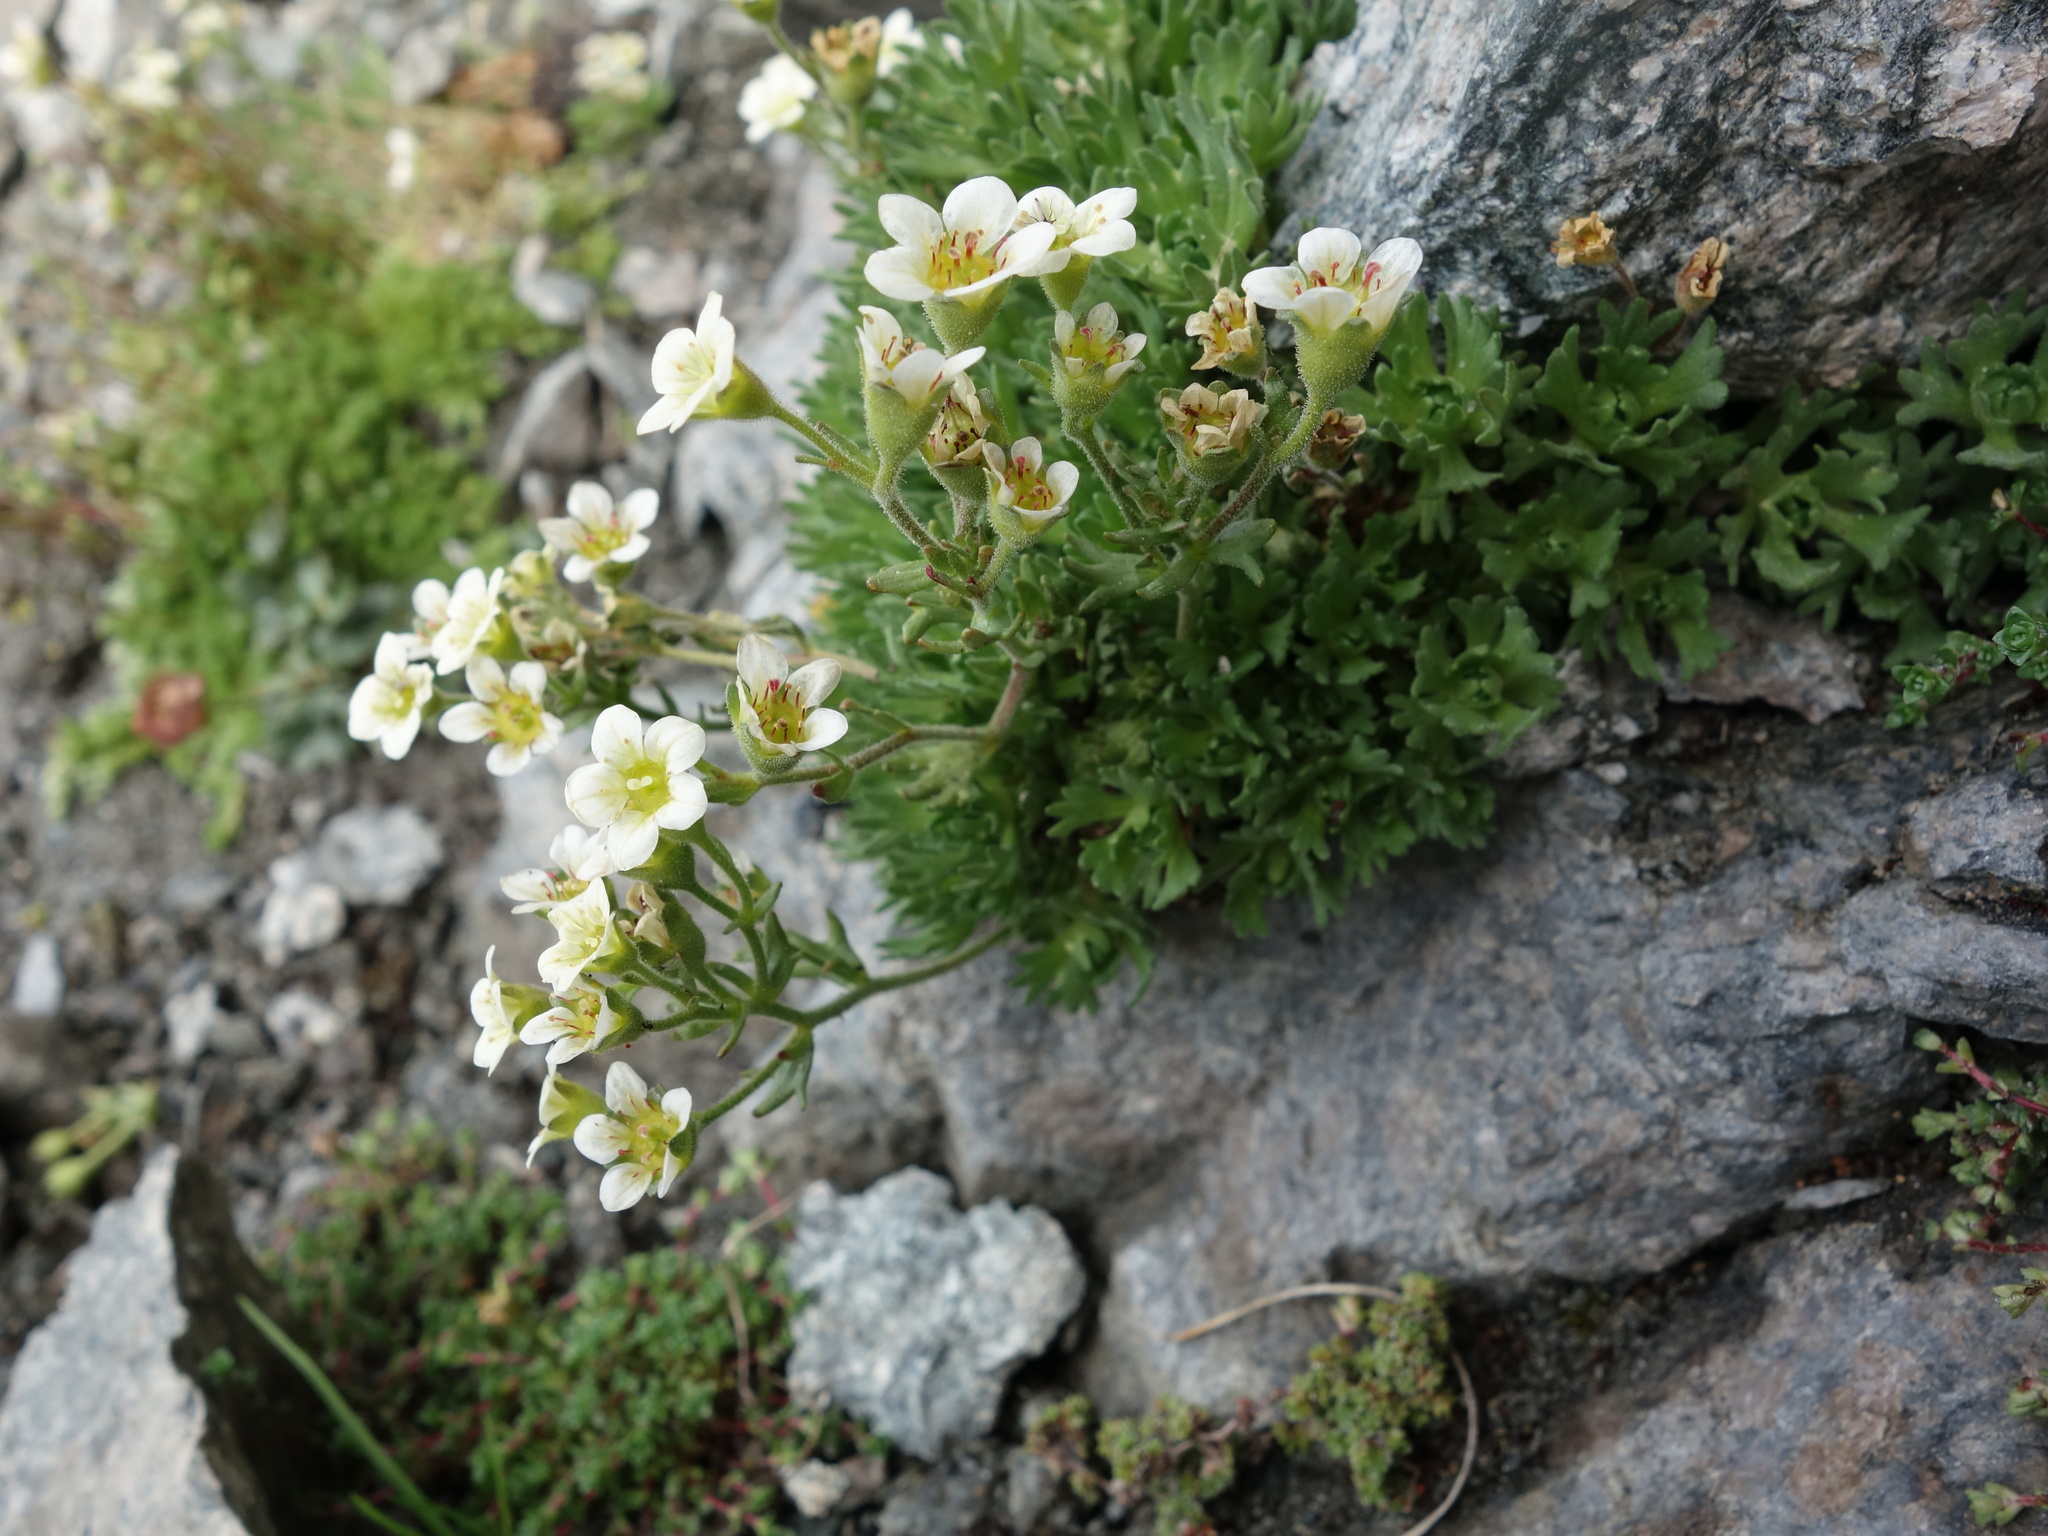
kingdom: Plantae
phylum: Tracheophyta
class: Magnoliopsida
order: Saxifragales
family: Saxifragaceae
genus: Saxifraga
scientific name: Saxifraga exarata
